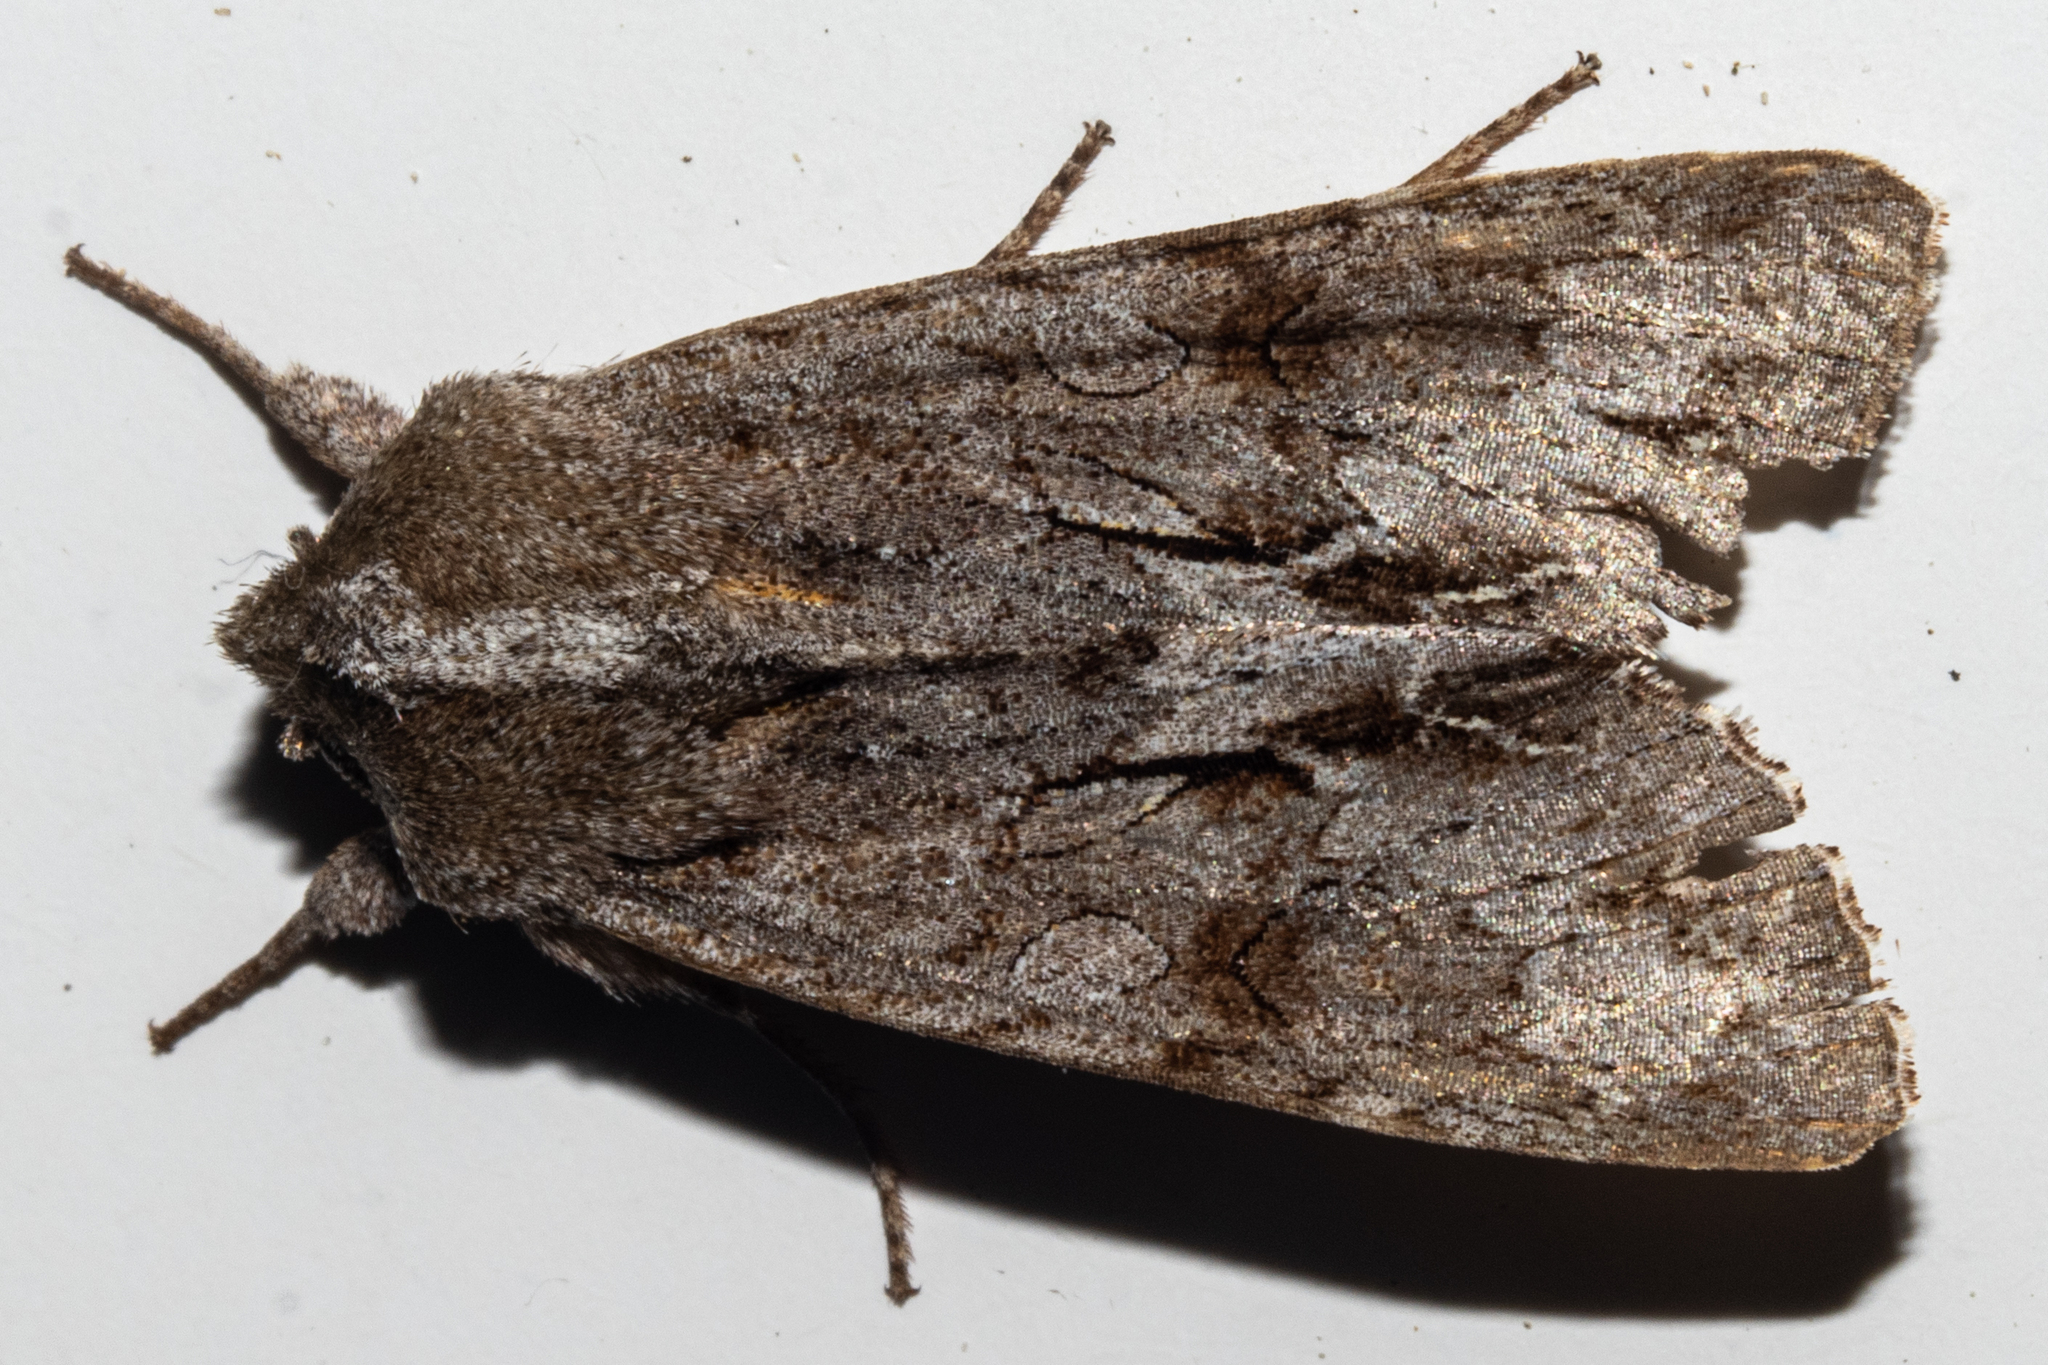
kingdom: Animalia
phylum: Arthropoda
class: Insecta
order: Lepidoptera
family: Noctuidae
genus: Ichneutica
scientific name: Ichneutica
